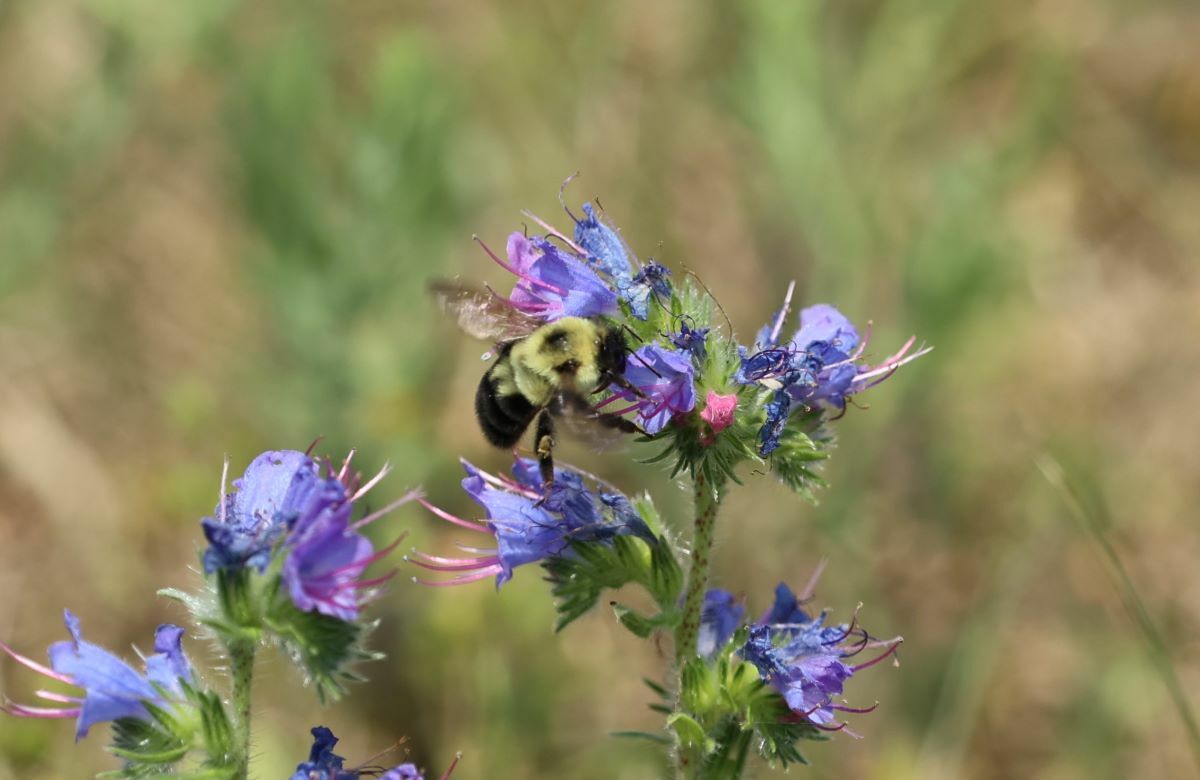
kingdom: Animalia
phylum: Arthropoda
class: Insecta
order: Hymenoptera
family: Apidae
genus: Bombus
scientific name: Bombus bimaculatus
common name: Two-spotted bumble bee
